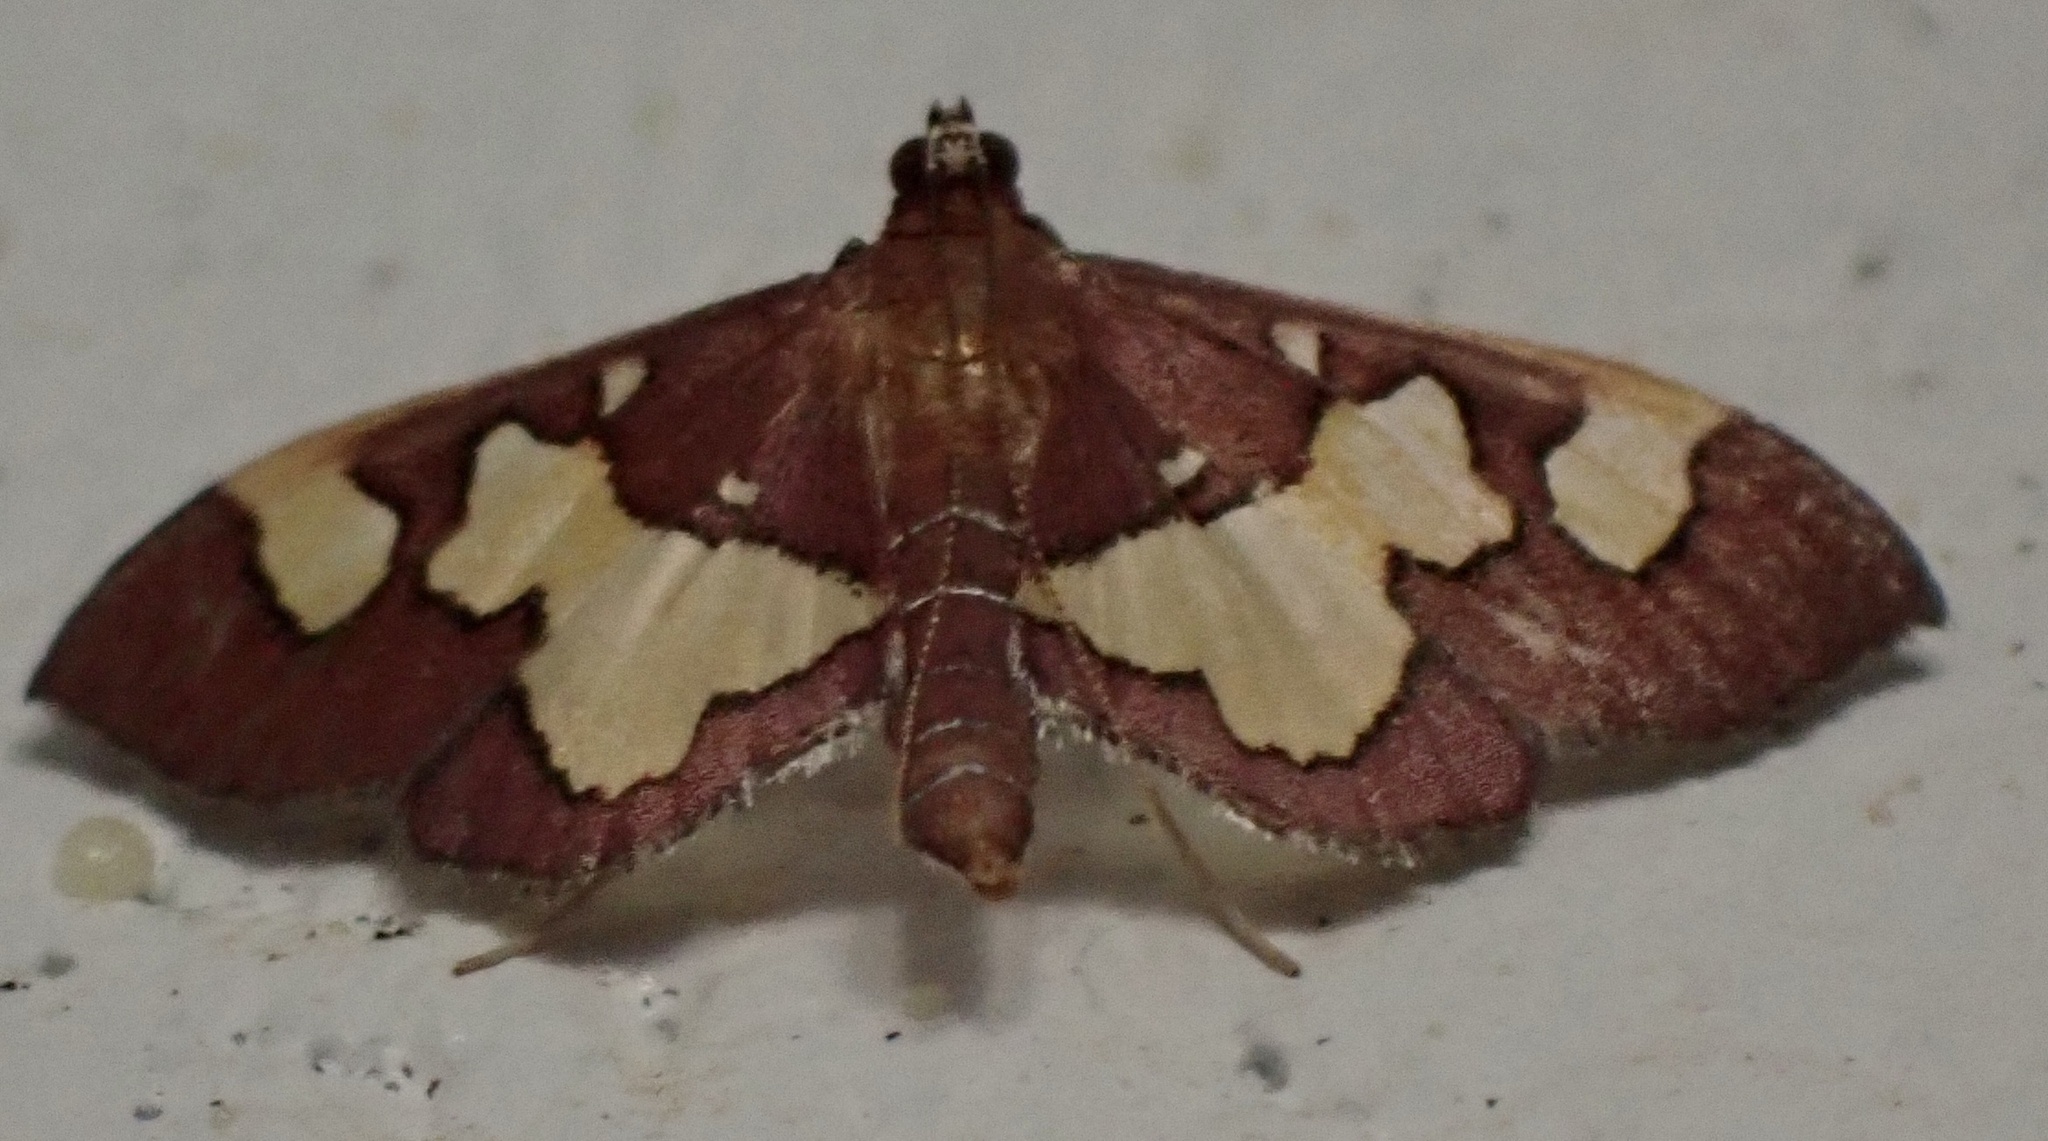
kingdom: Animalia
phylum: Arthropoda
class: Insecta
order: Lepidoptera
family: Crambidae
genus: Colomychus
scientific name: Colomychus talis
